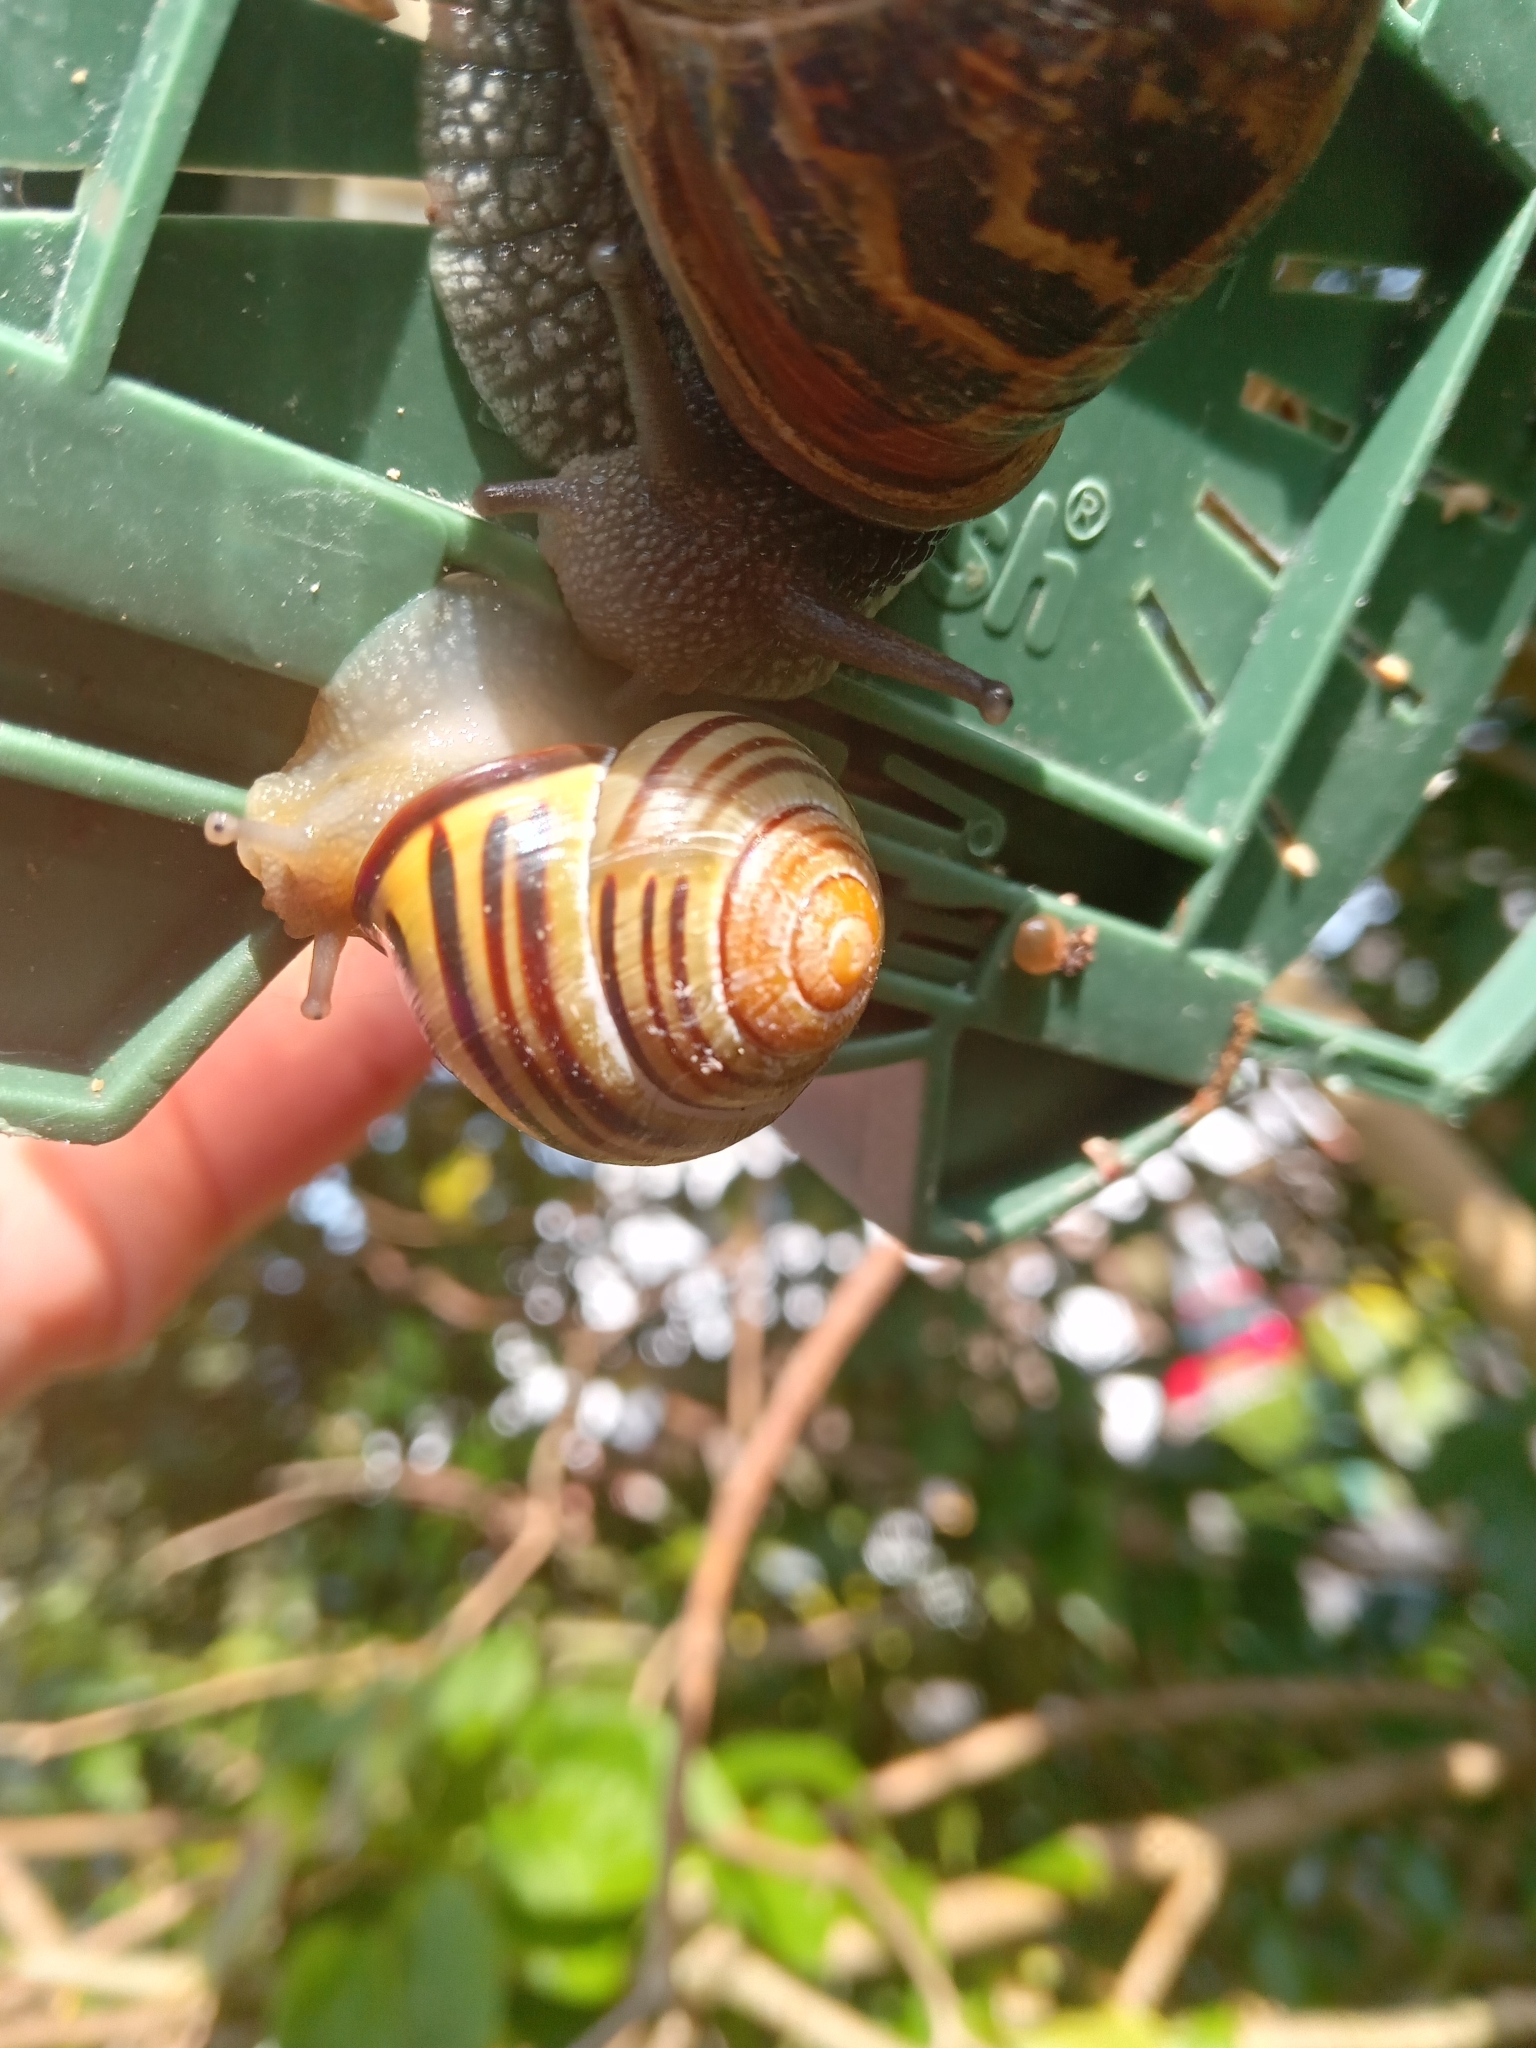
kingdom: Animalia
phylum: Mollusca
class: Gastropoda
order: Stylommatophora
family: Helicidae
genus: Cepaea
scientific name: Cepaea nemoralis
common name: Grovesnail
